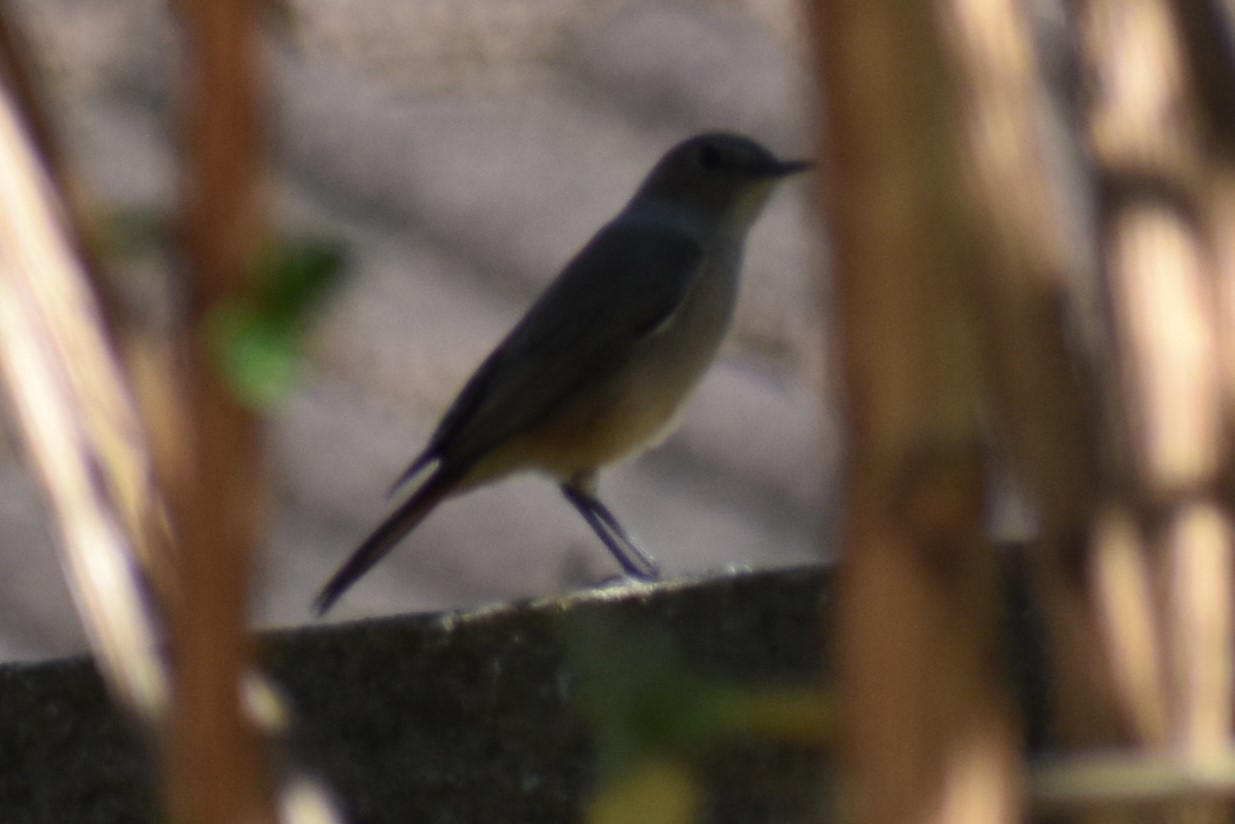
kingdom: Animalia
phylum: Chordata
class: Aves
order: Passeriformes
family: Muscicapidae
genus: Oenanthe
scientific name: Oenanthe familiaris
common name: Familiar chat
